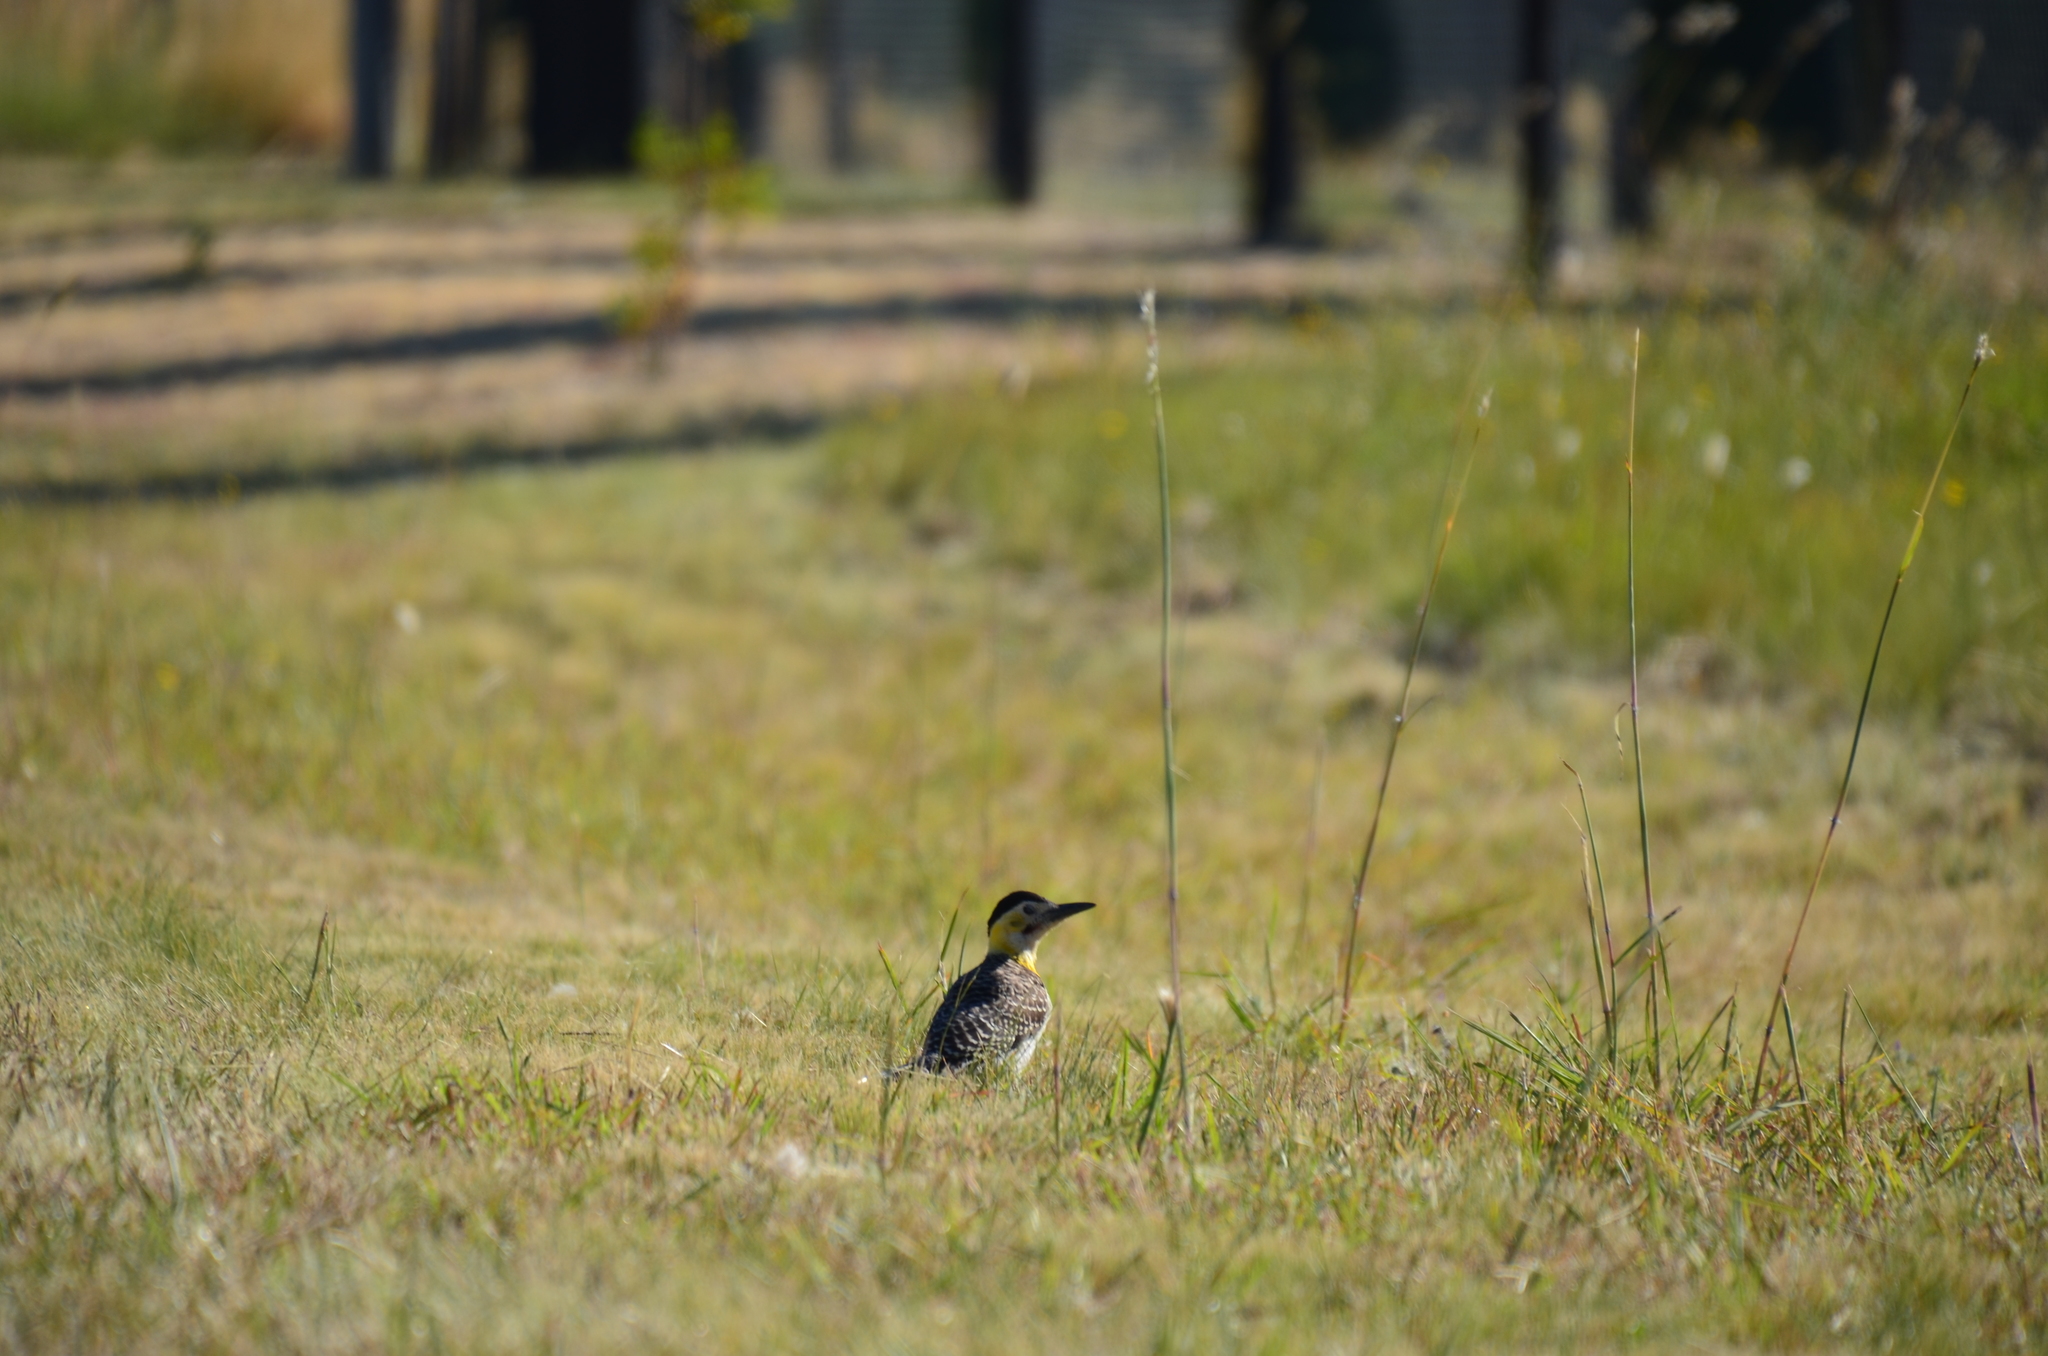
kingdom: Animalia
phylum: Chordata
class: Aves
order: Piciformes
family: Picidae
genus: Colaptes
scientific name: Colaptes campestris
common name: Campo flicker
